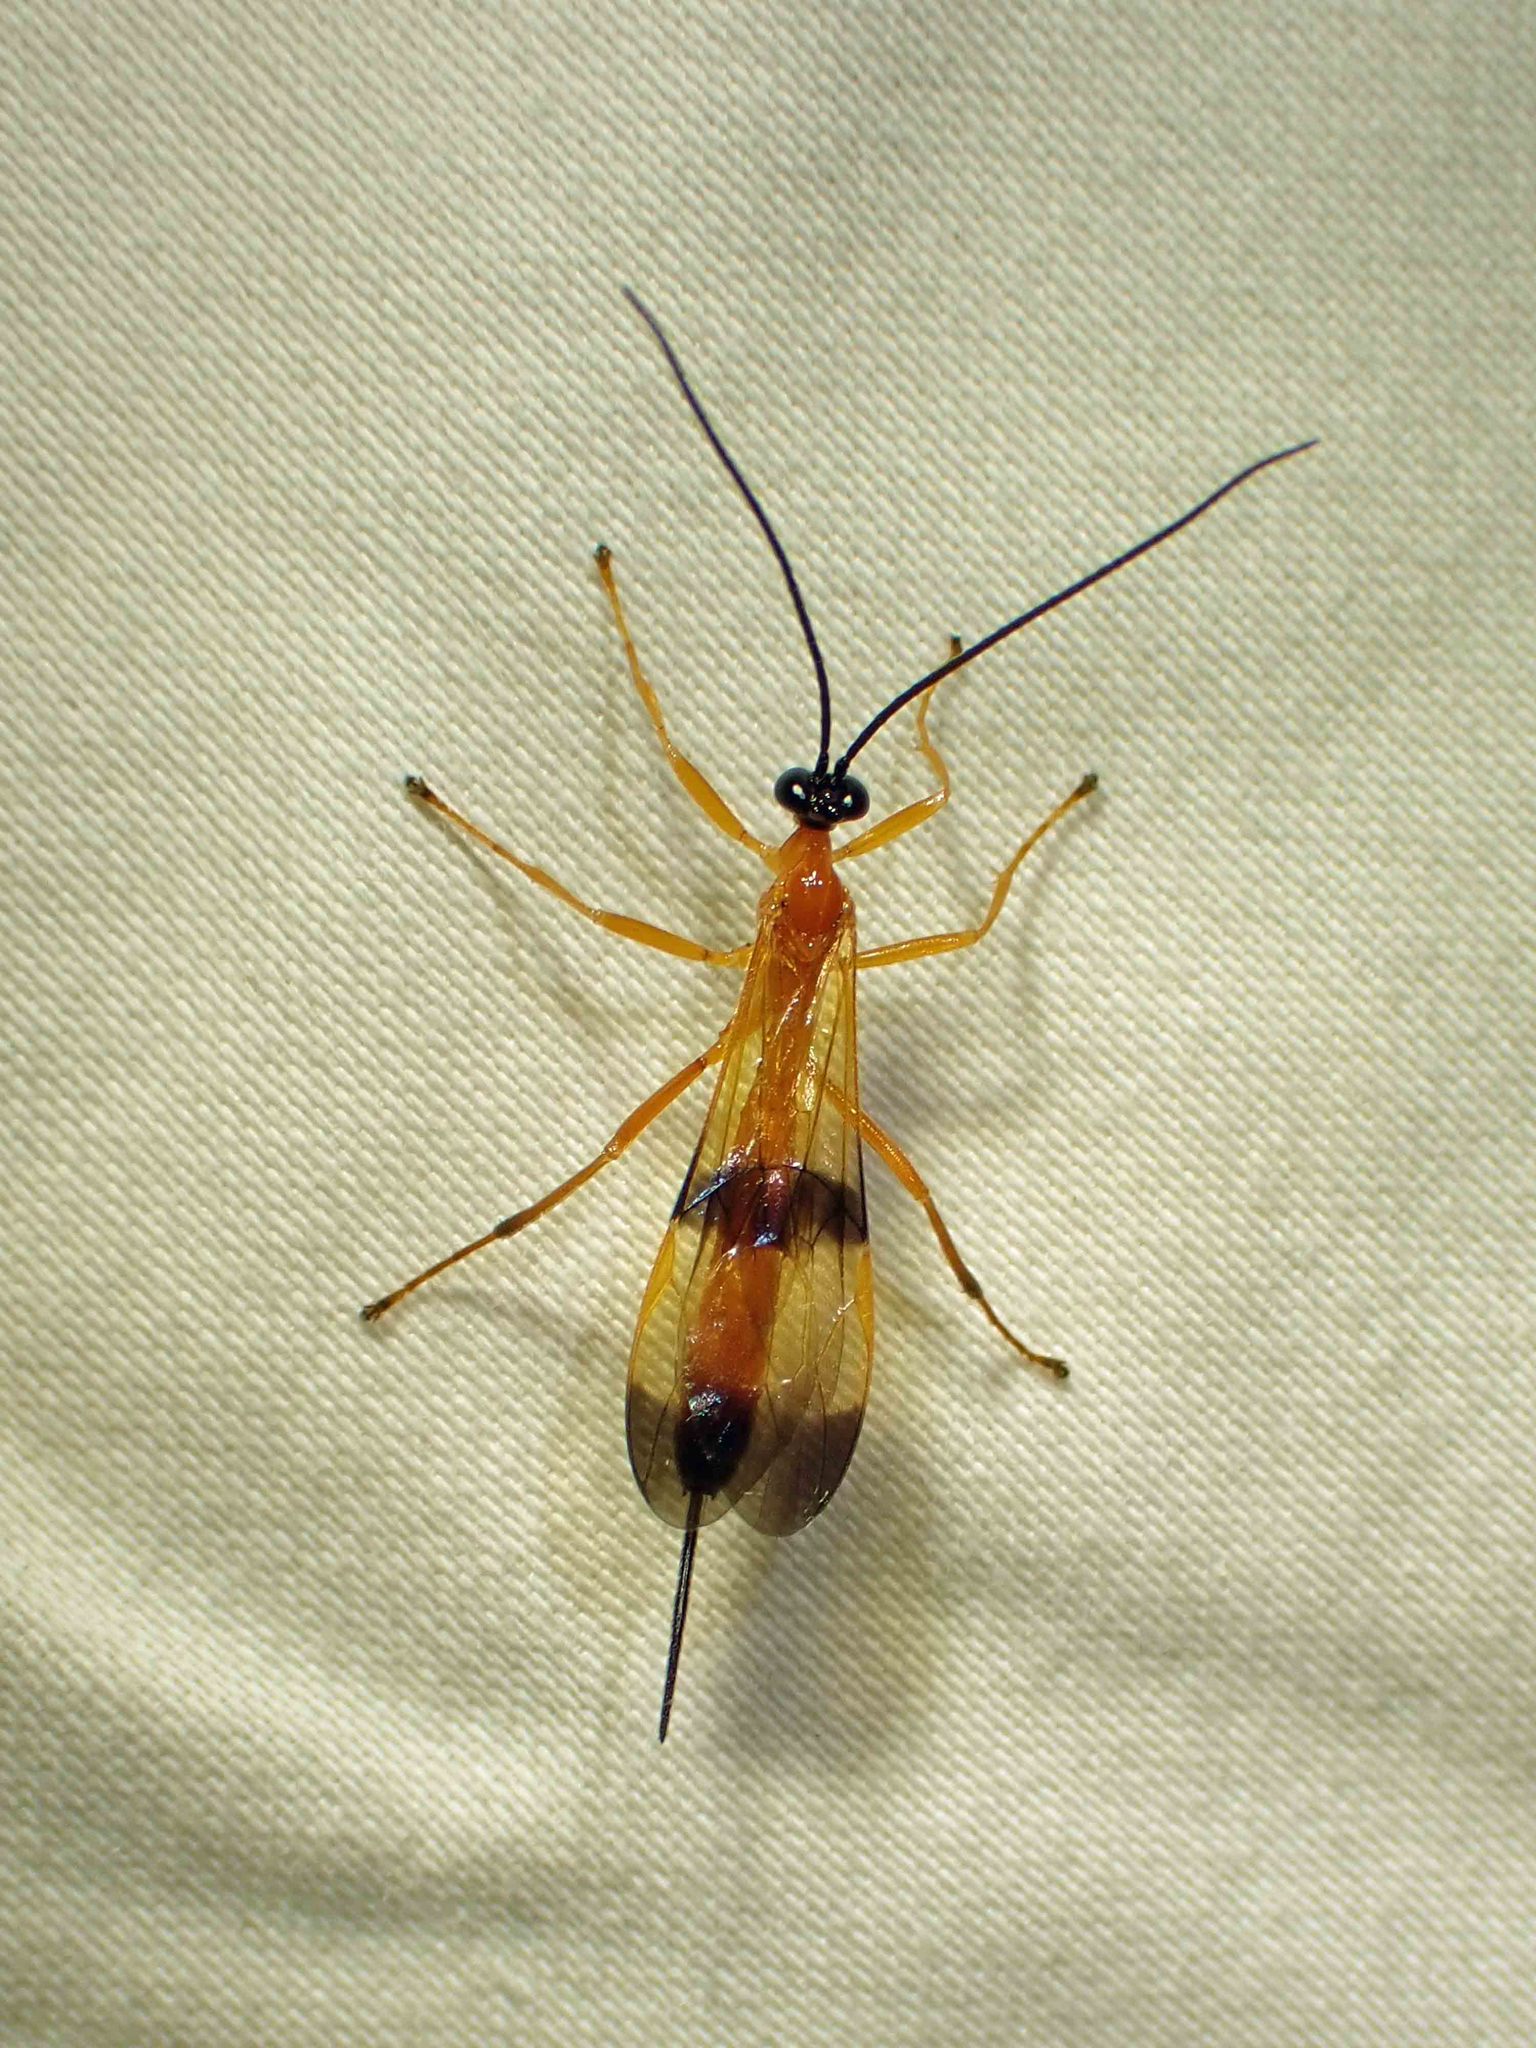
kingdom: Animalia
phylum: Arthropoda
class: Insecta
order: Hymenoptera
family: Ichneumonidae
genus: Acrotaphus
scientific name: Acrotaphus wiltii
